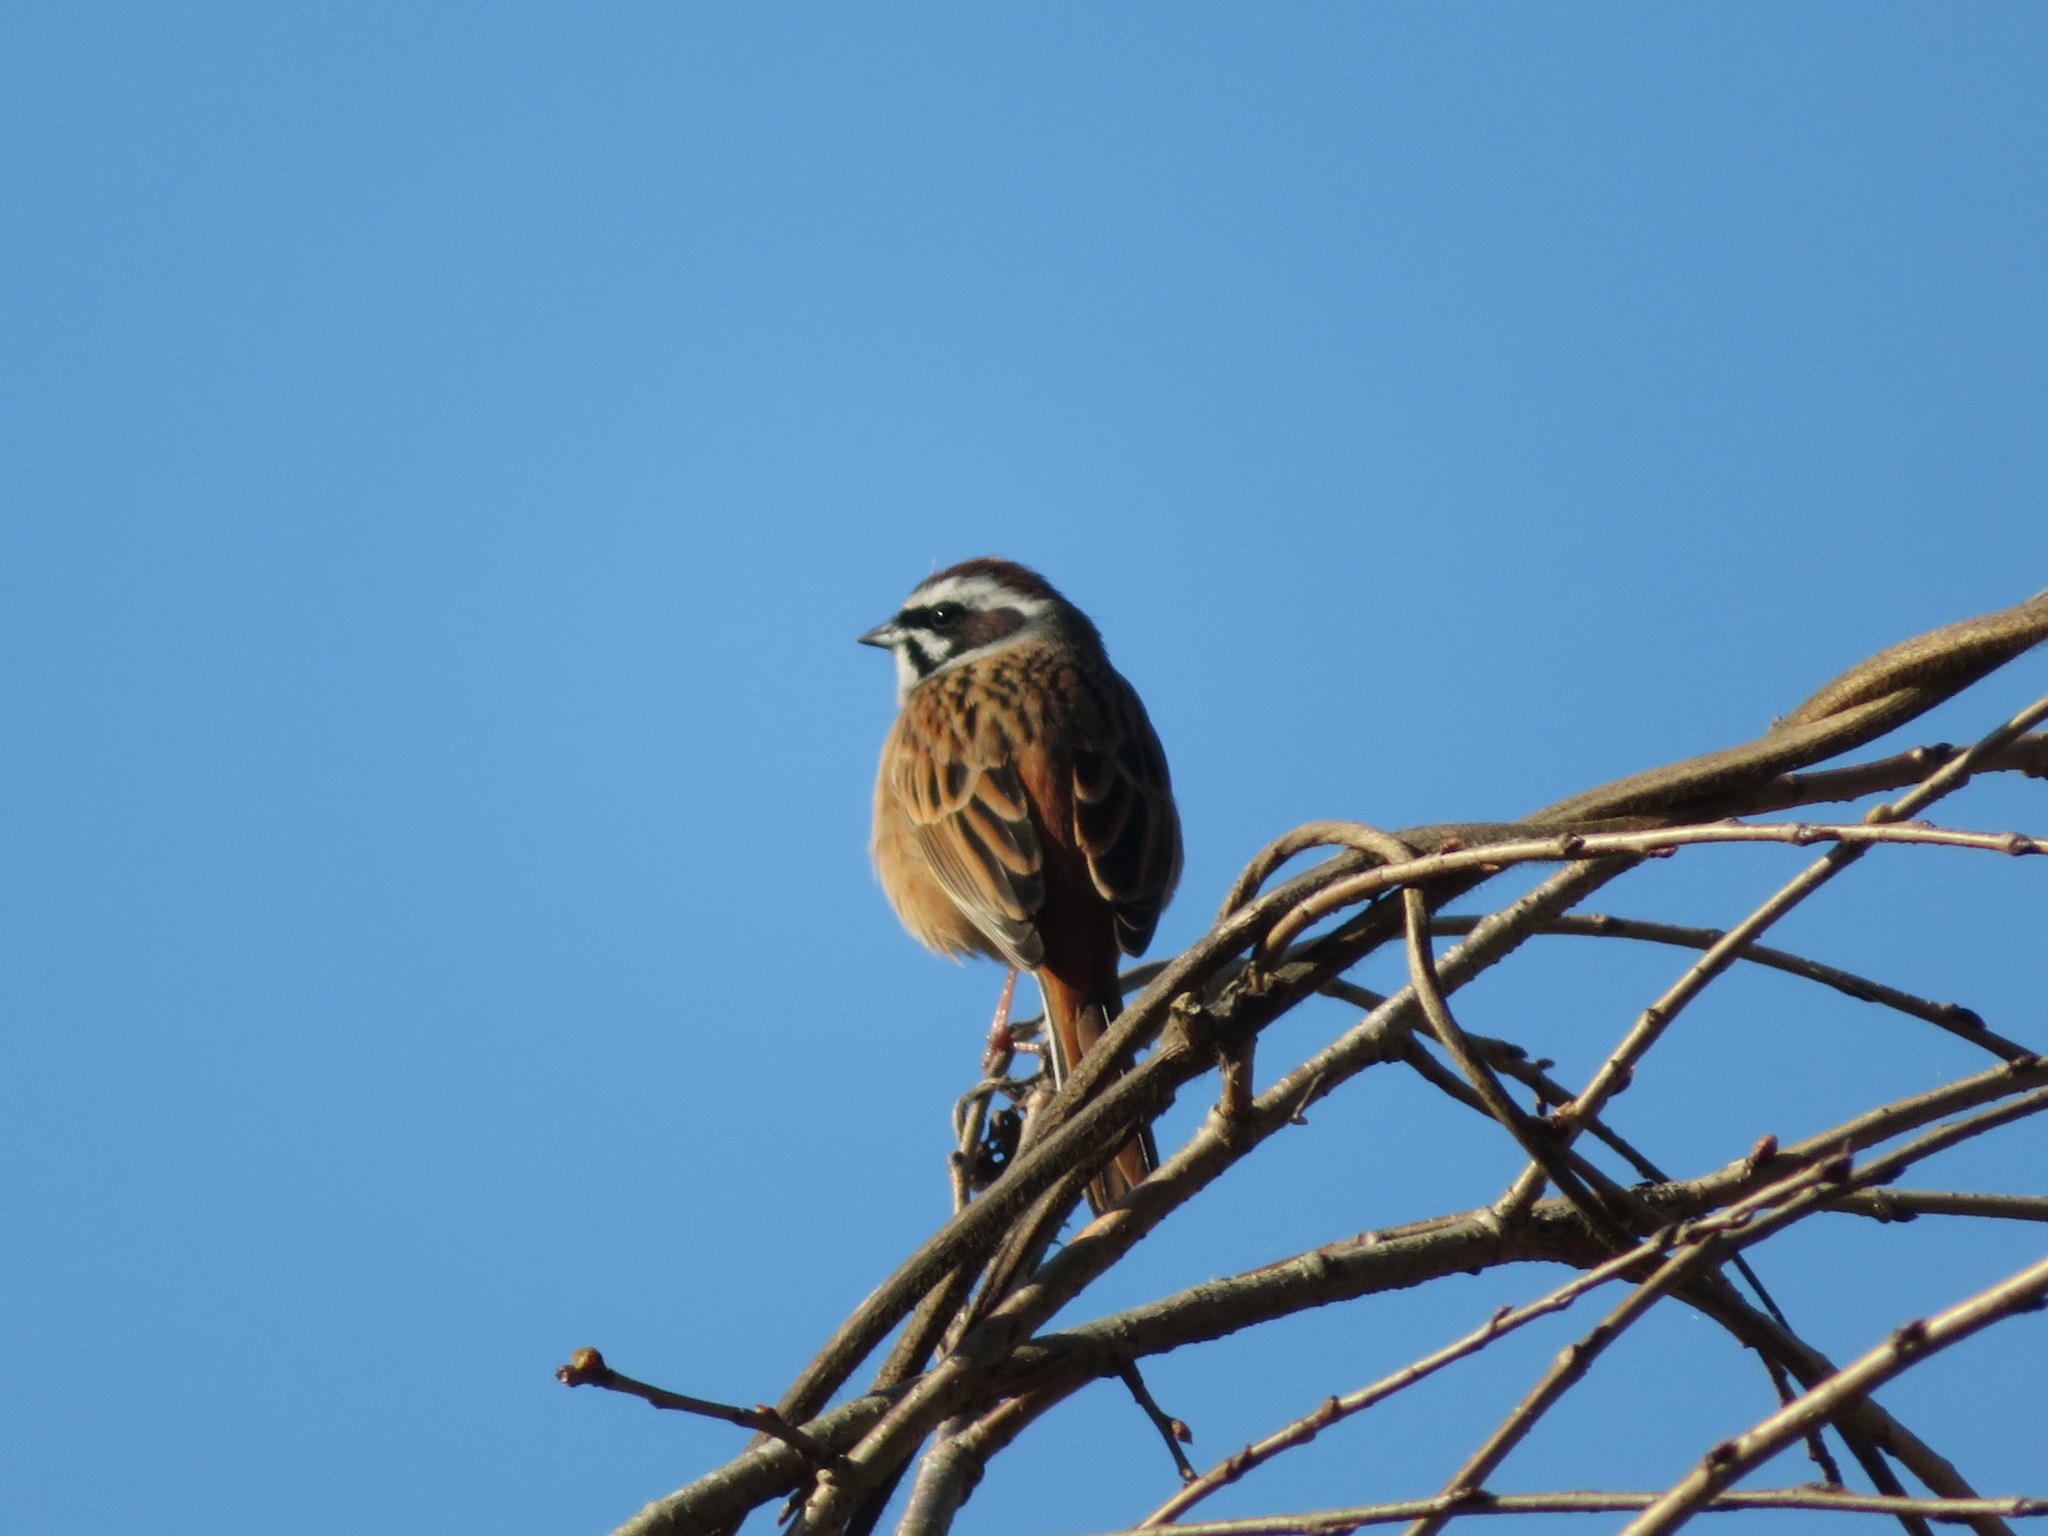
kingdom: Animalia
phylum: Chordata
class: Aves
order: Passeriformes
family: Emberizidae
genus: Emberiza
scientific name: Emberiza cioides
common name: Meadow bunting
